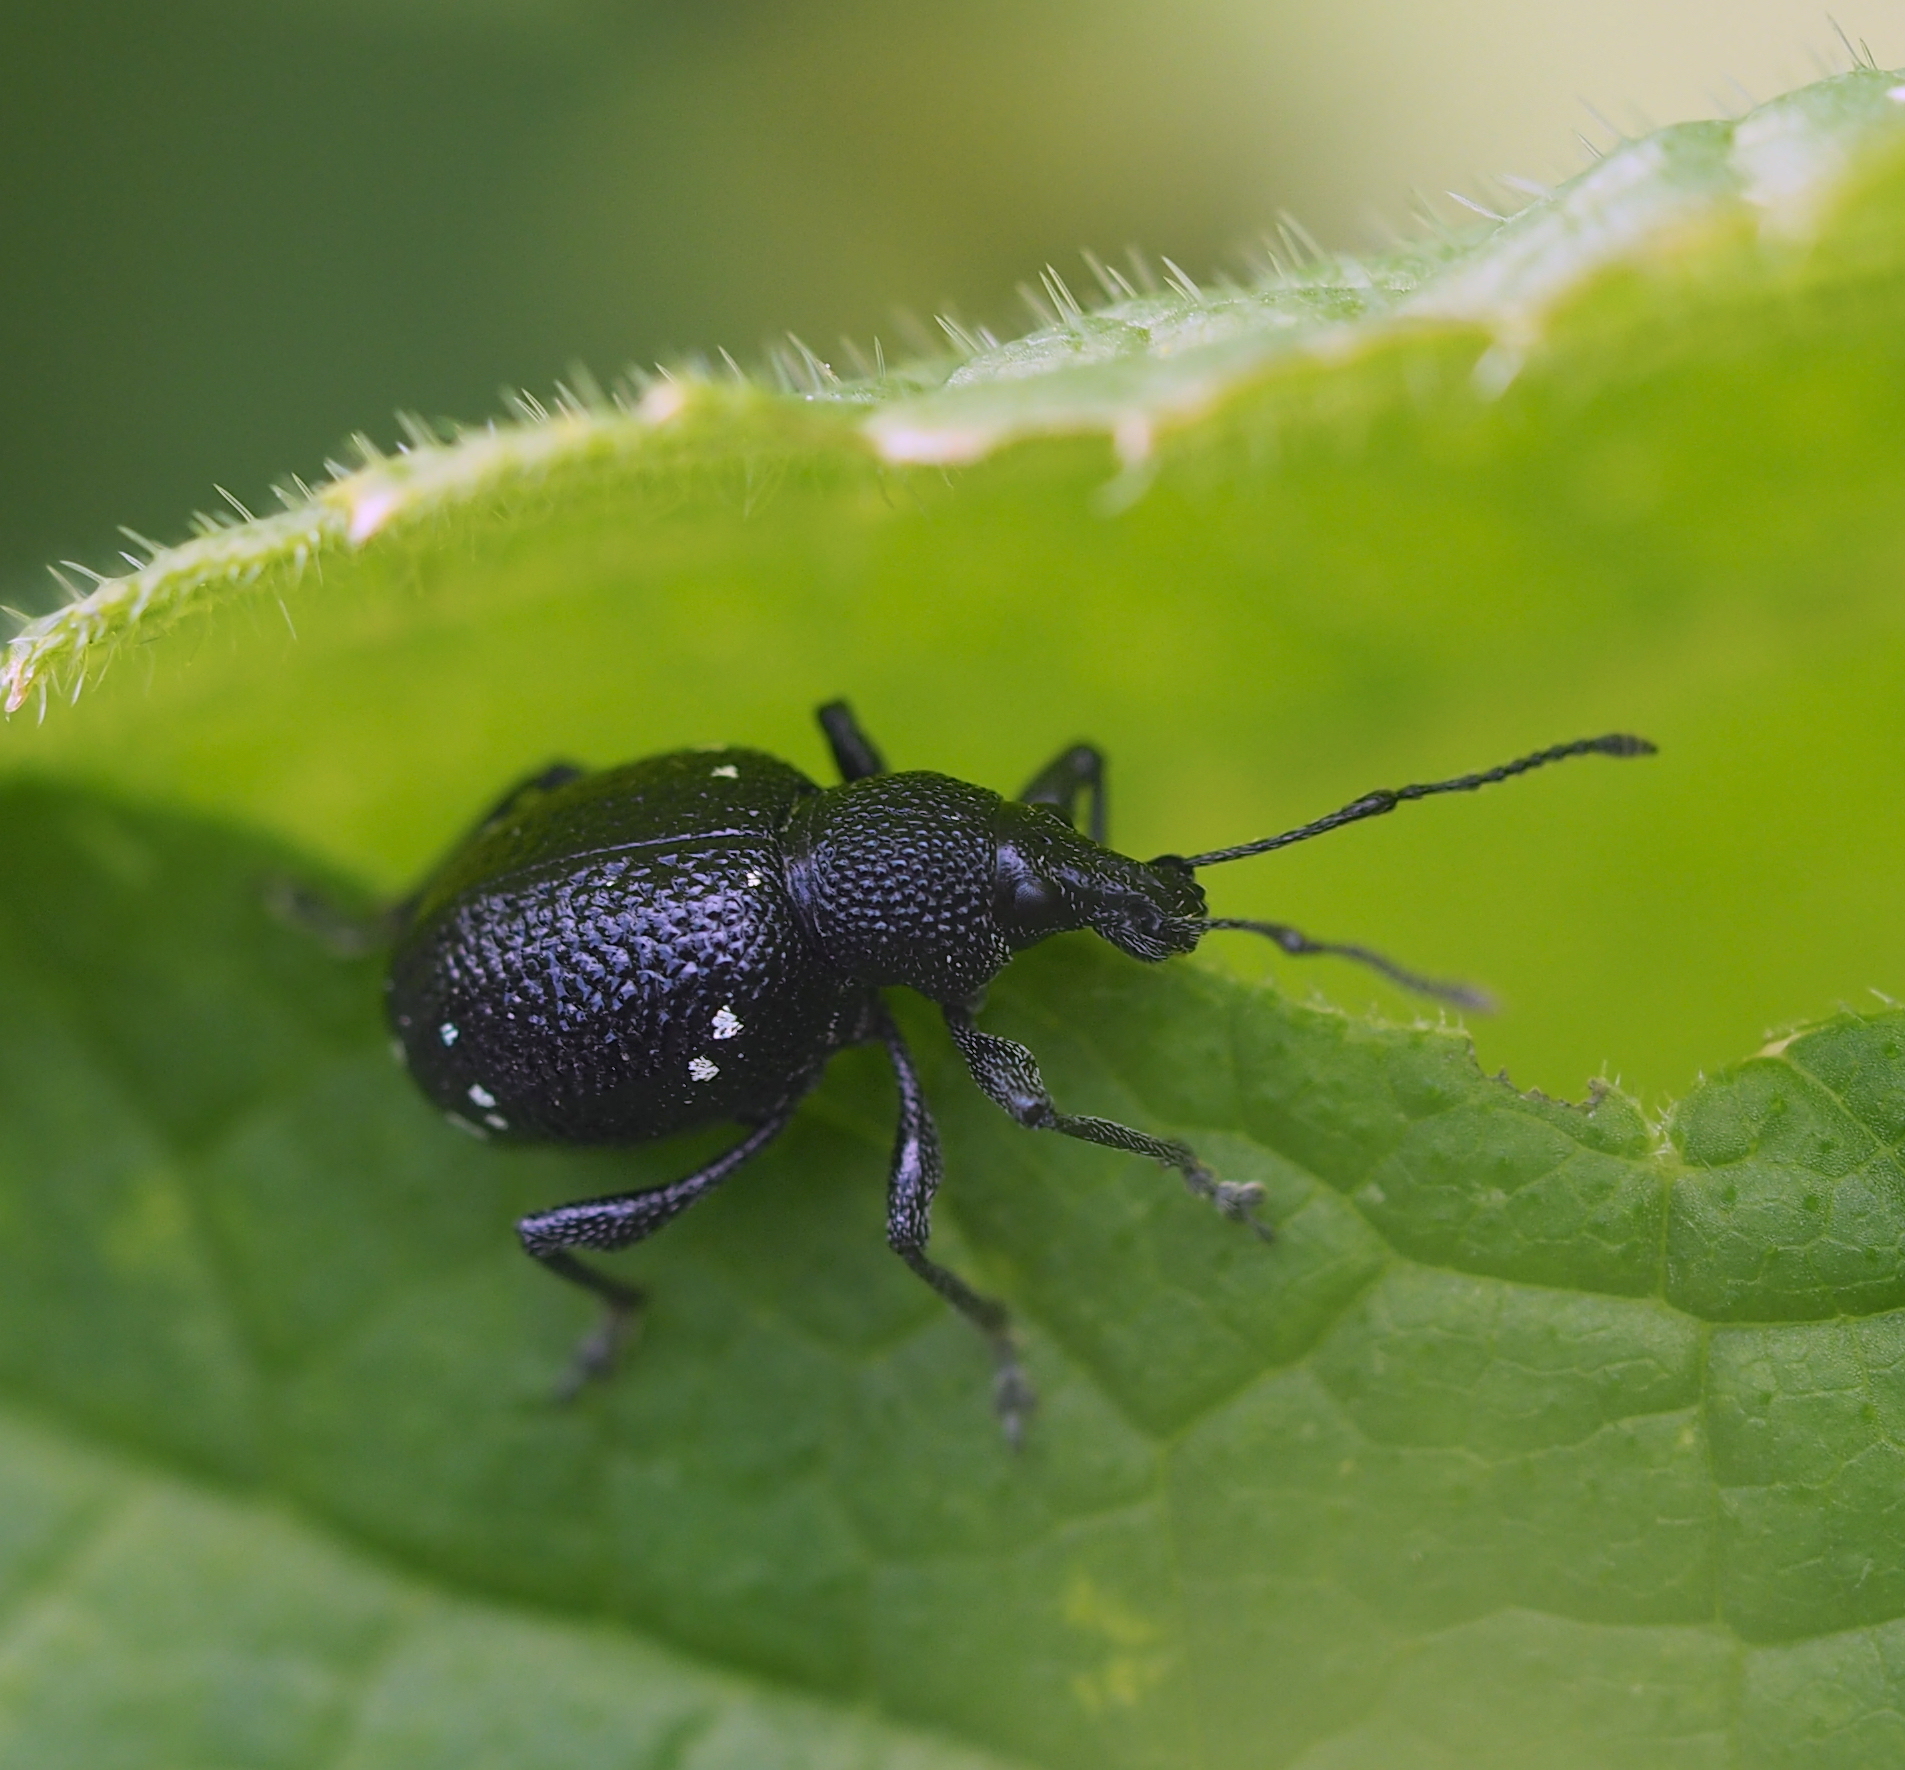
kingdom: Animalia
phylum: Arthropoda
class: Insecta
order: Coleoptera
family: Curculionidae
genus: Otiorhynchus
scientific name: Otiorhynchus gemmatus
